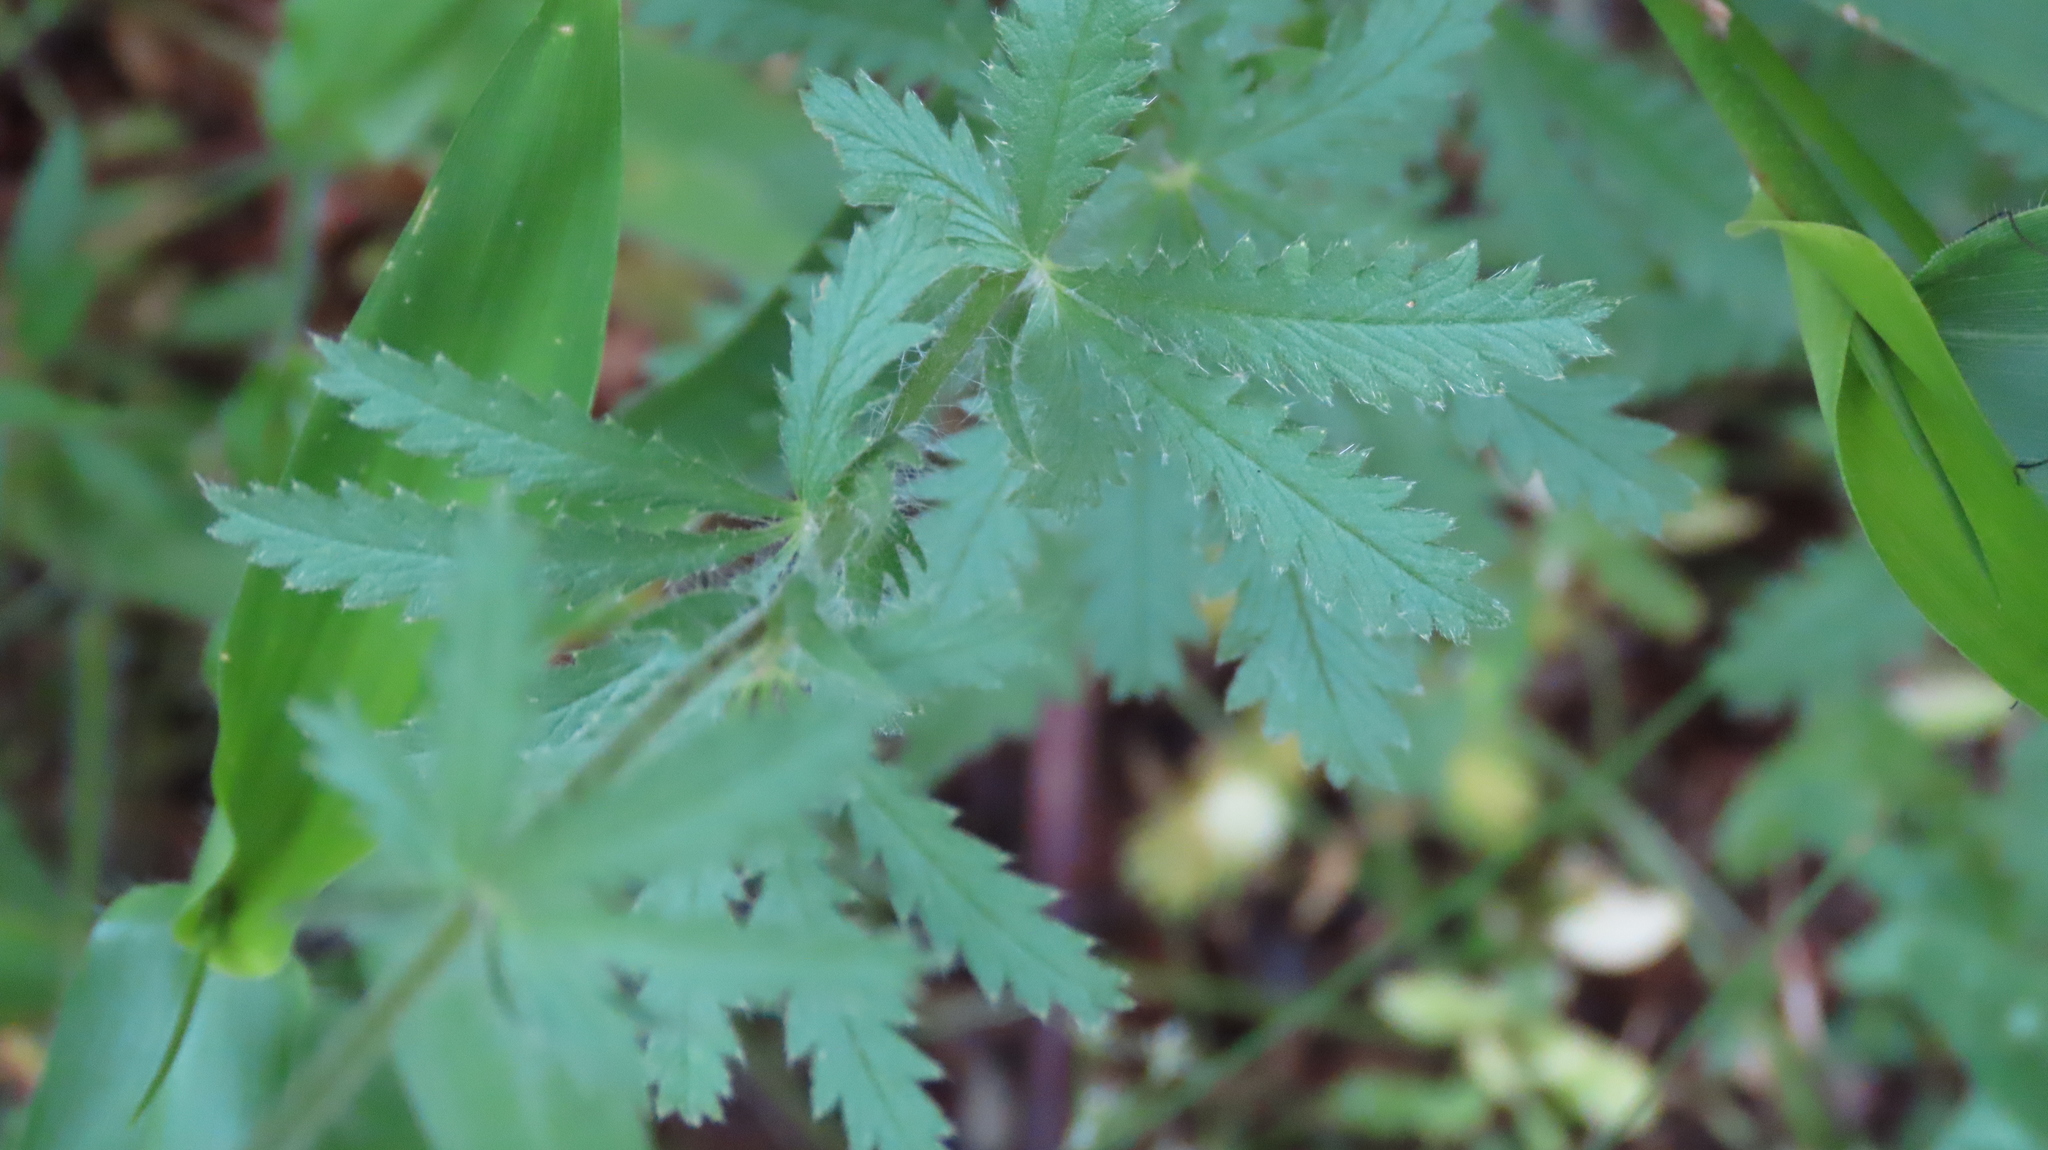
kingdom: Plantae
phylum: Tracheophyta
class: Magnoliopsida
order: Rosales
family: Rosaceae
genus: Potentilla
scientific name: Potentilla recta
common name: Sulphur cinquefoil
